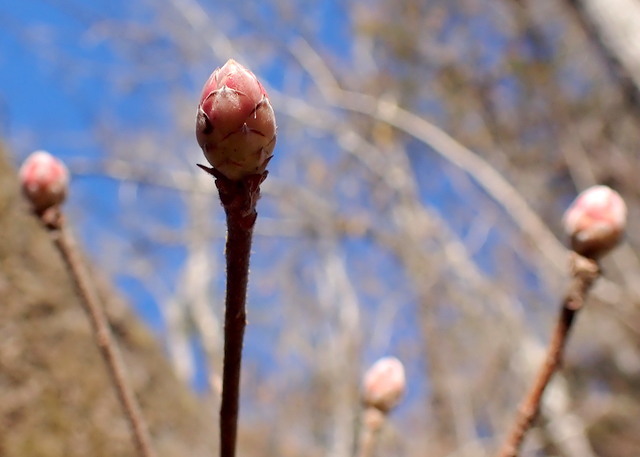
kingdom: Plantae
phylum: Tracheophyta
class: Magnoliopsida
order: Ericales
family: Ericaceae
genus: Rhododendron
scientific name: Rhododendron canescens
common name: Mountain azalea
